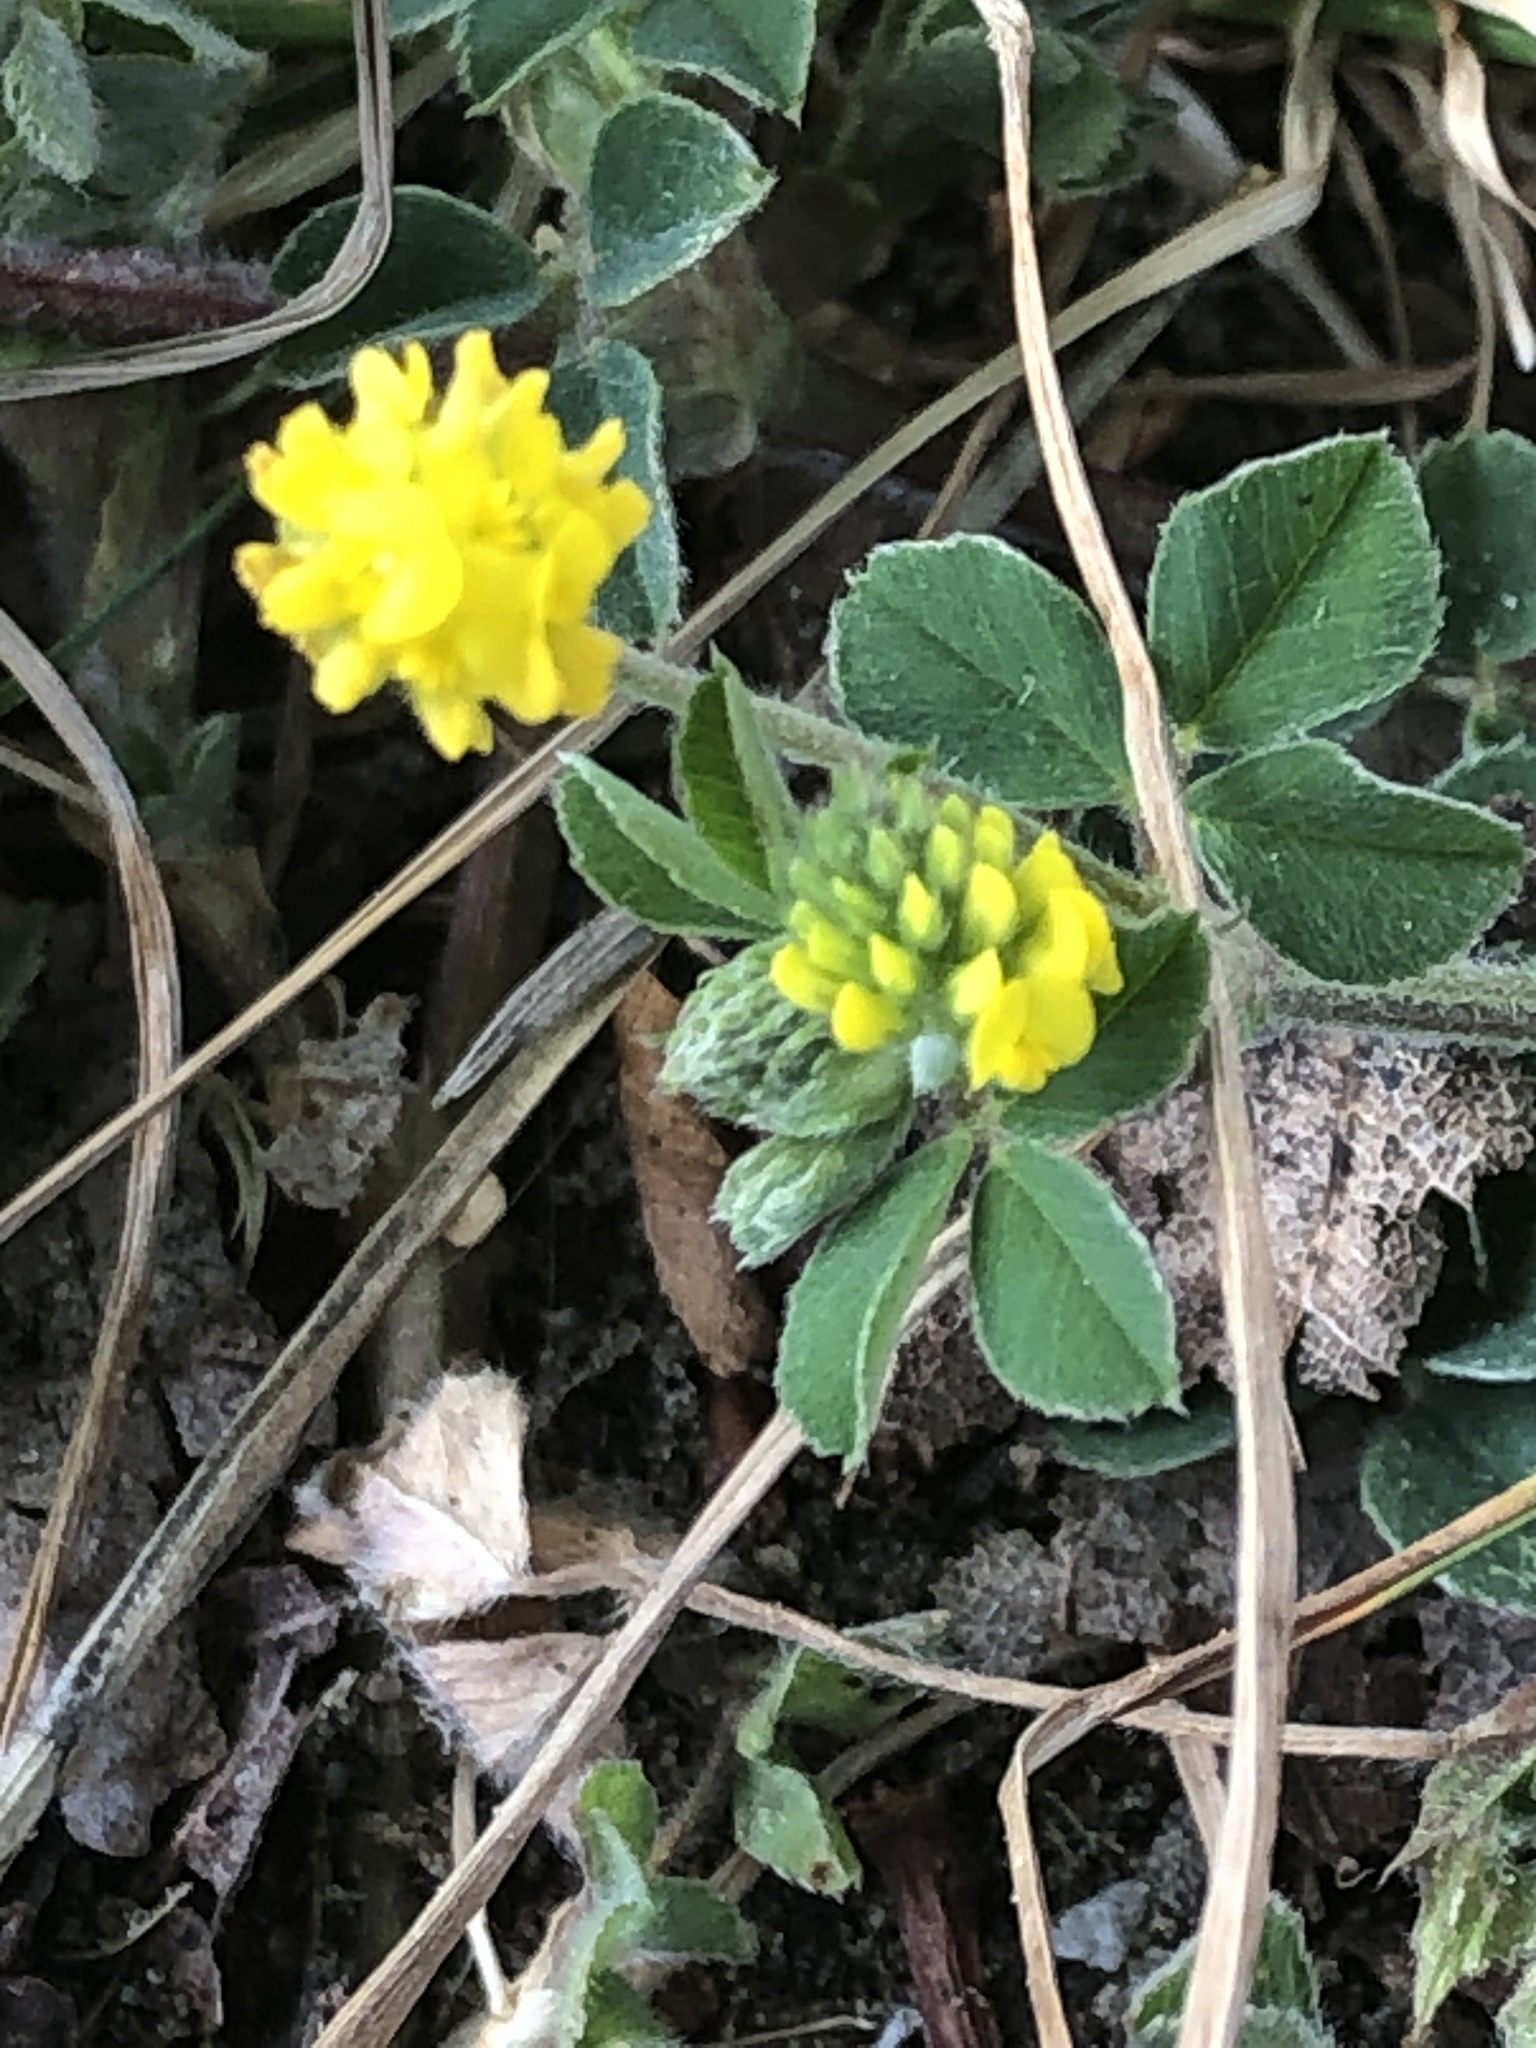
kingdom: Plantae
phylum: Tracheophyta
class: Magnoliopsida
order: Fabales
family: Fabaceae
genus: Medicago
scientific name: Medicago lupulina
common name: Black medick
